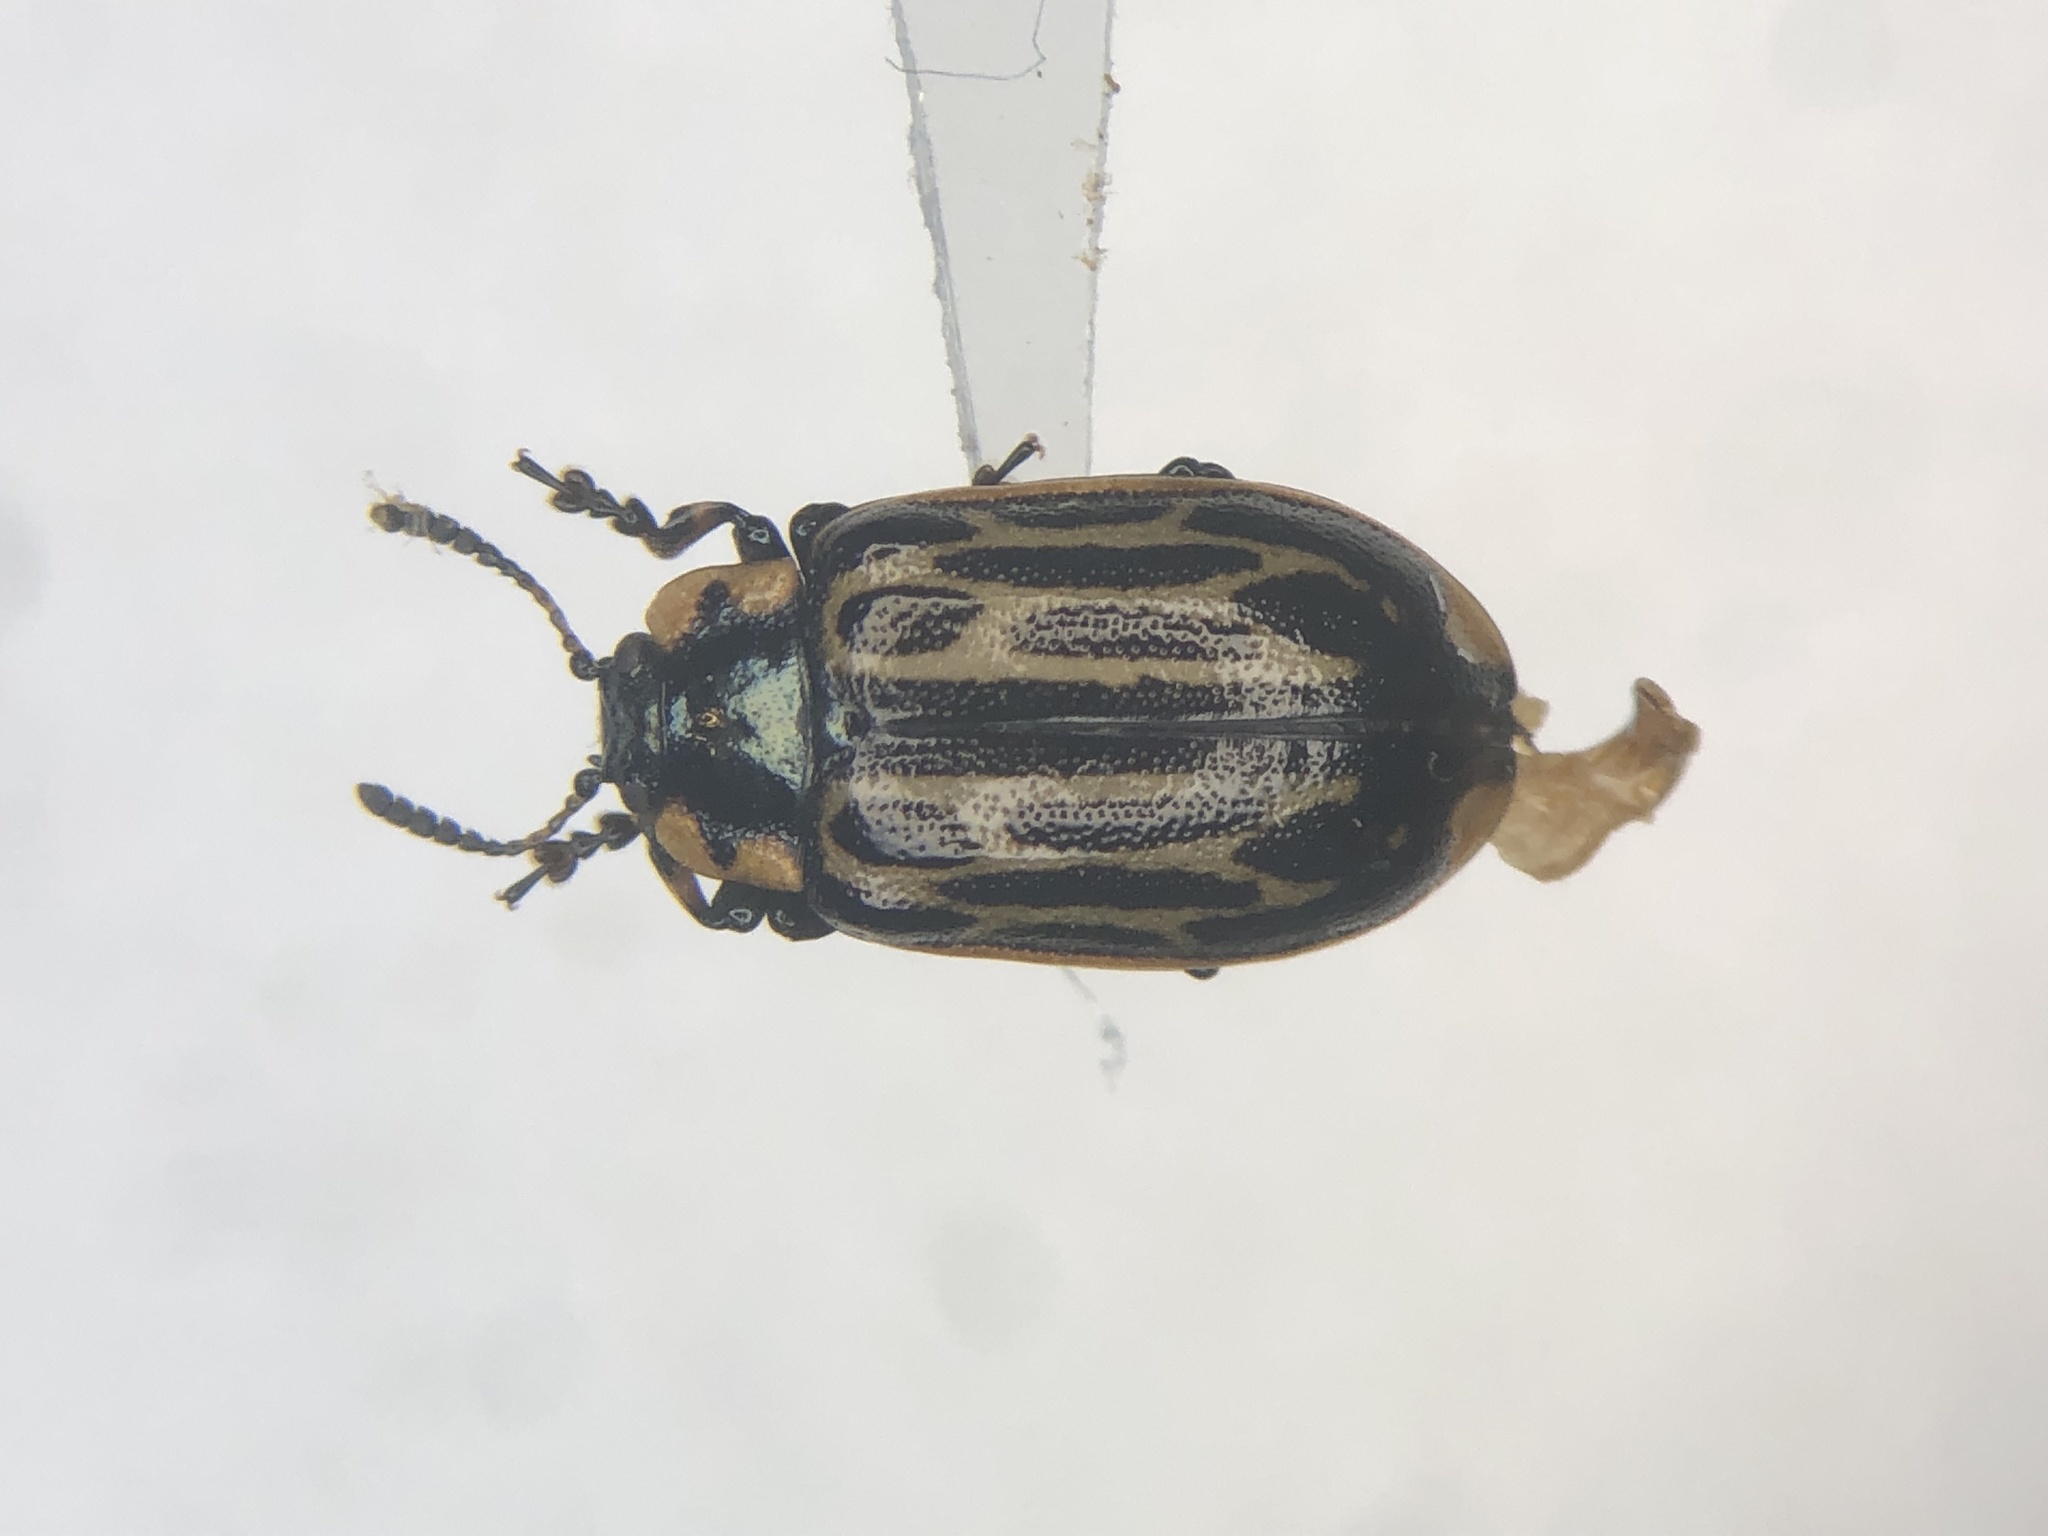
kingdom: Animalia
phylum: Arthropoda
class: Insecta
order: Coleoptera
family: Chrysomelidae
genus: Aethiopocassis
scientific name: Aethiopocassis scripta
